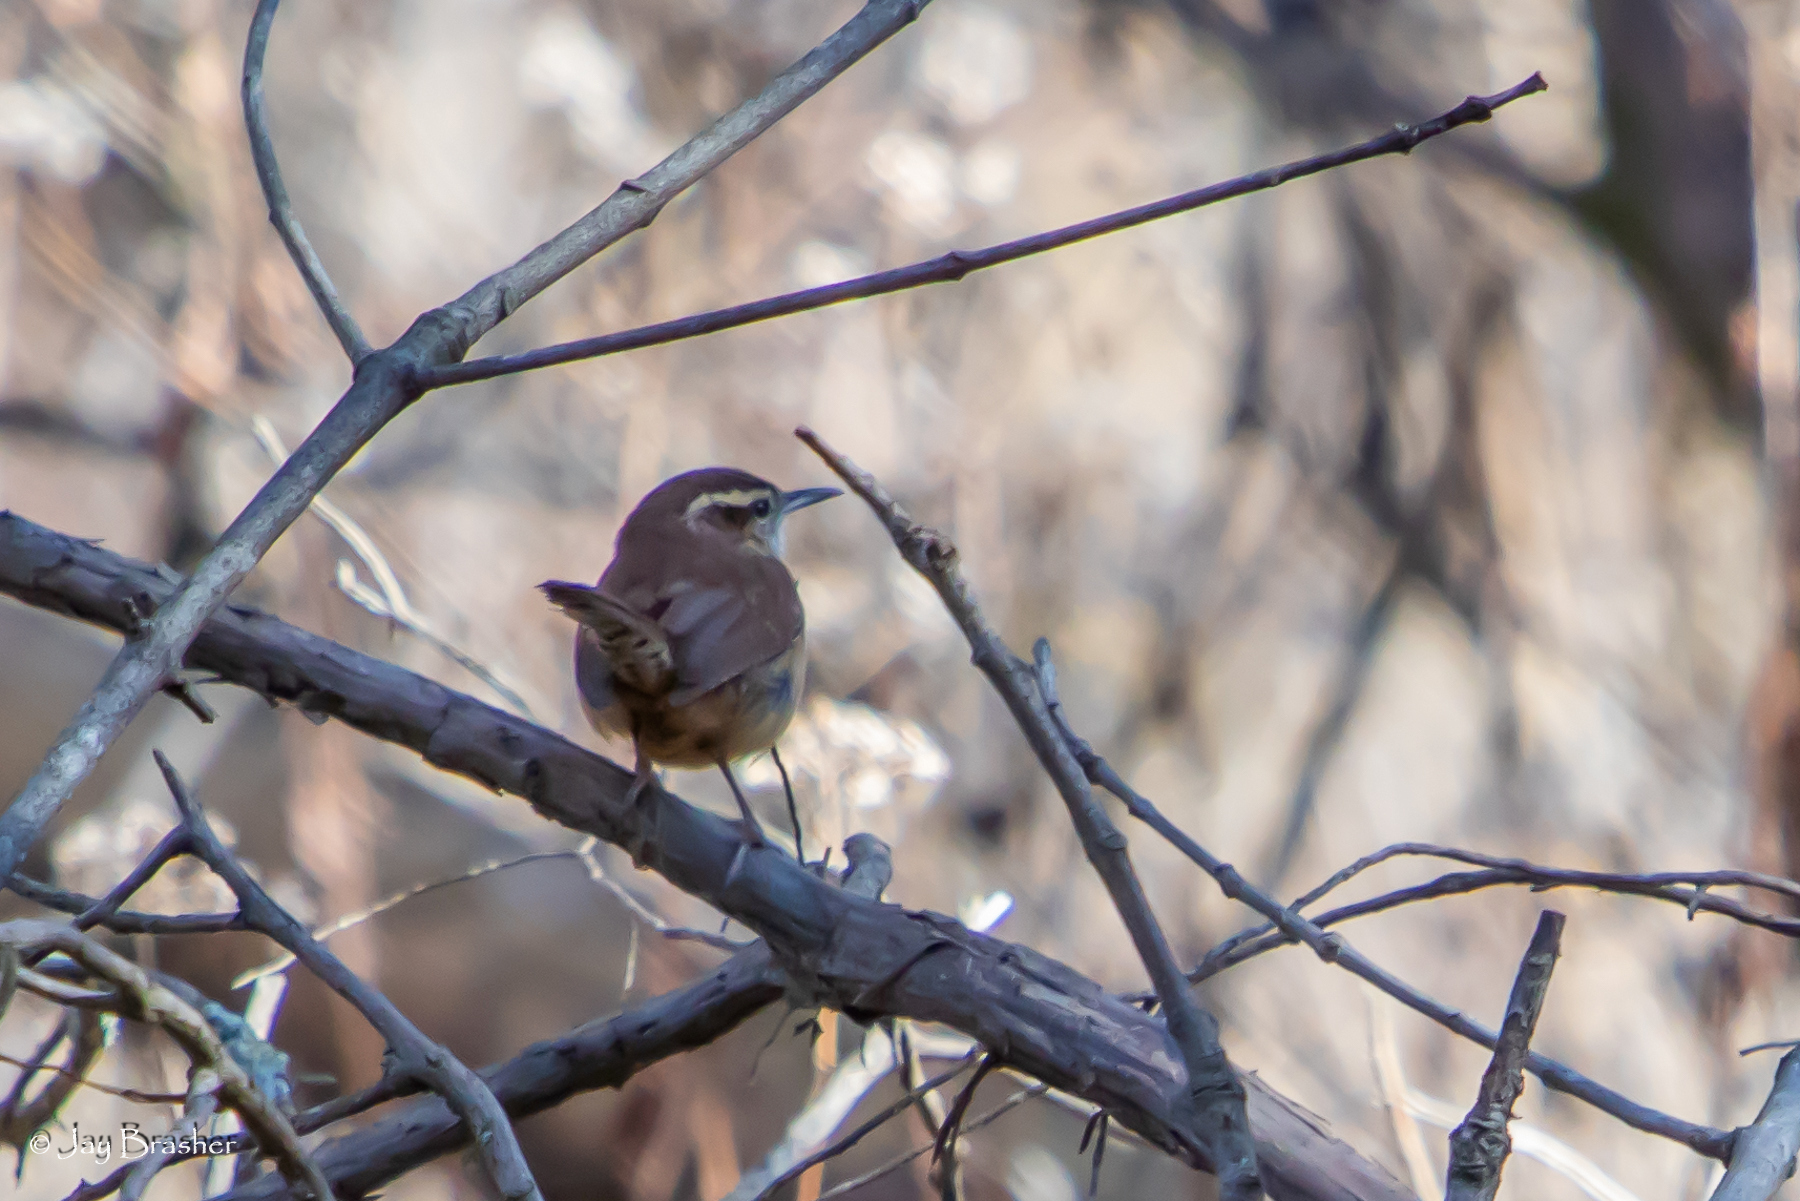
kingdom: Animalia
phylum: Chordata
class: Aves
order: Passeriformes
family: Troglodytidae
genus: Thryothorus
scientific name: Thryothorus ludovicianus
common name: Carolina wren
